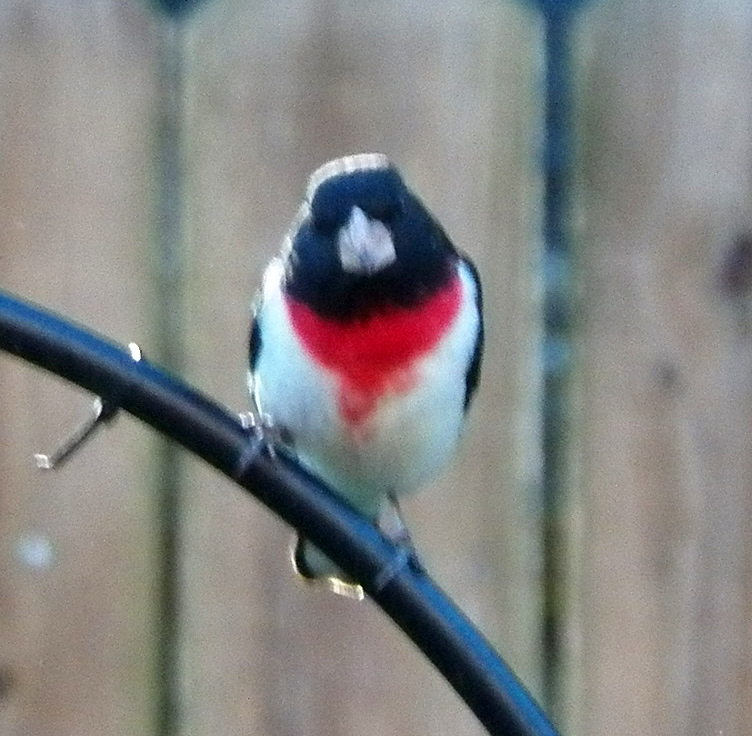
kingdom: Animalia
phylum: Chordata
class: Aves
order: Passeriformes
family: Cardinalidae
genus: Pheucticus
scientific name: Pheucticus ludovicianus
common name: Rose-breasted grosbeak
